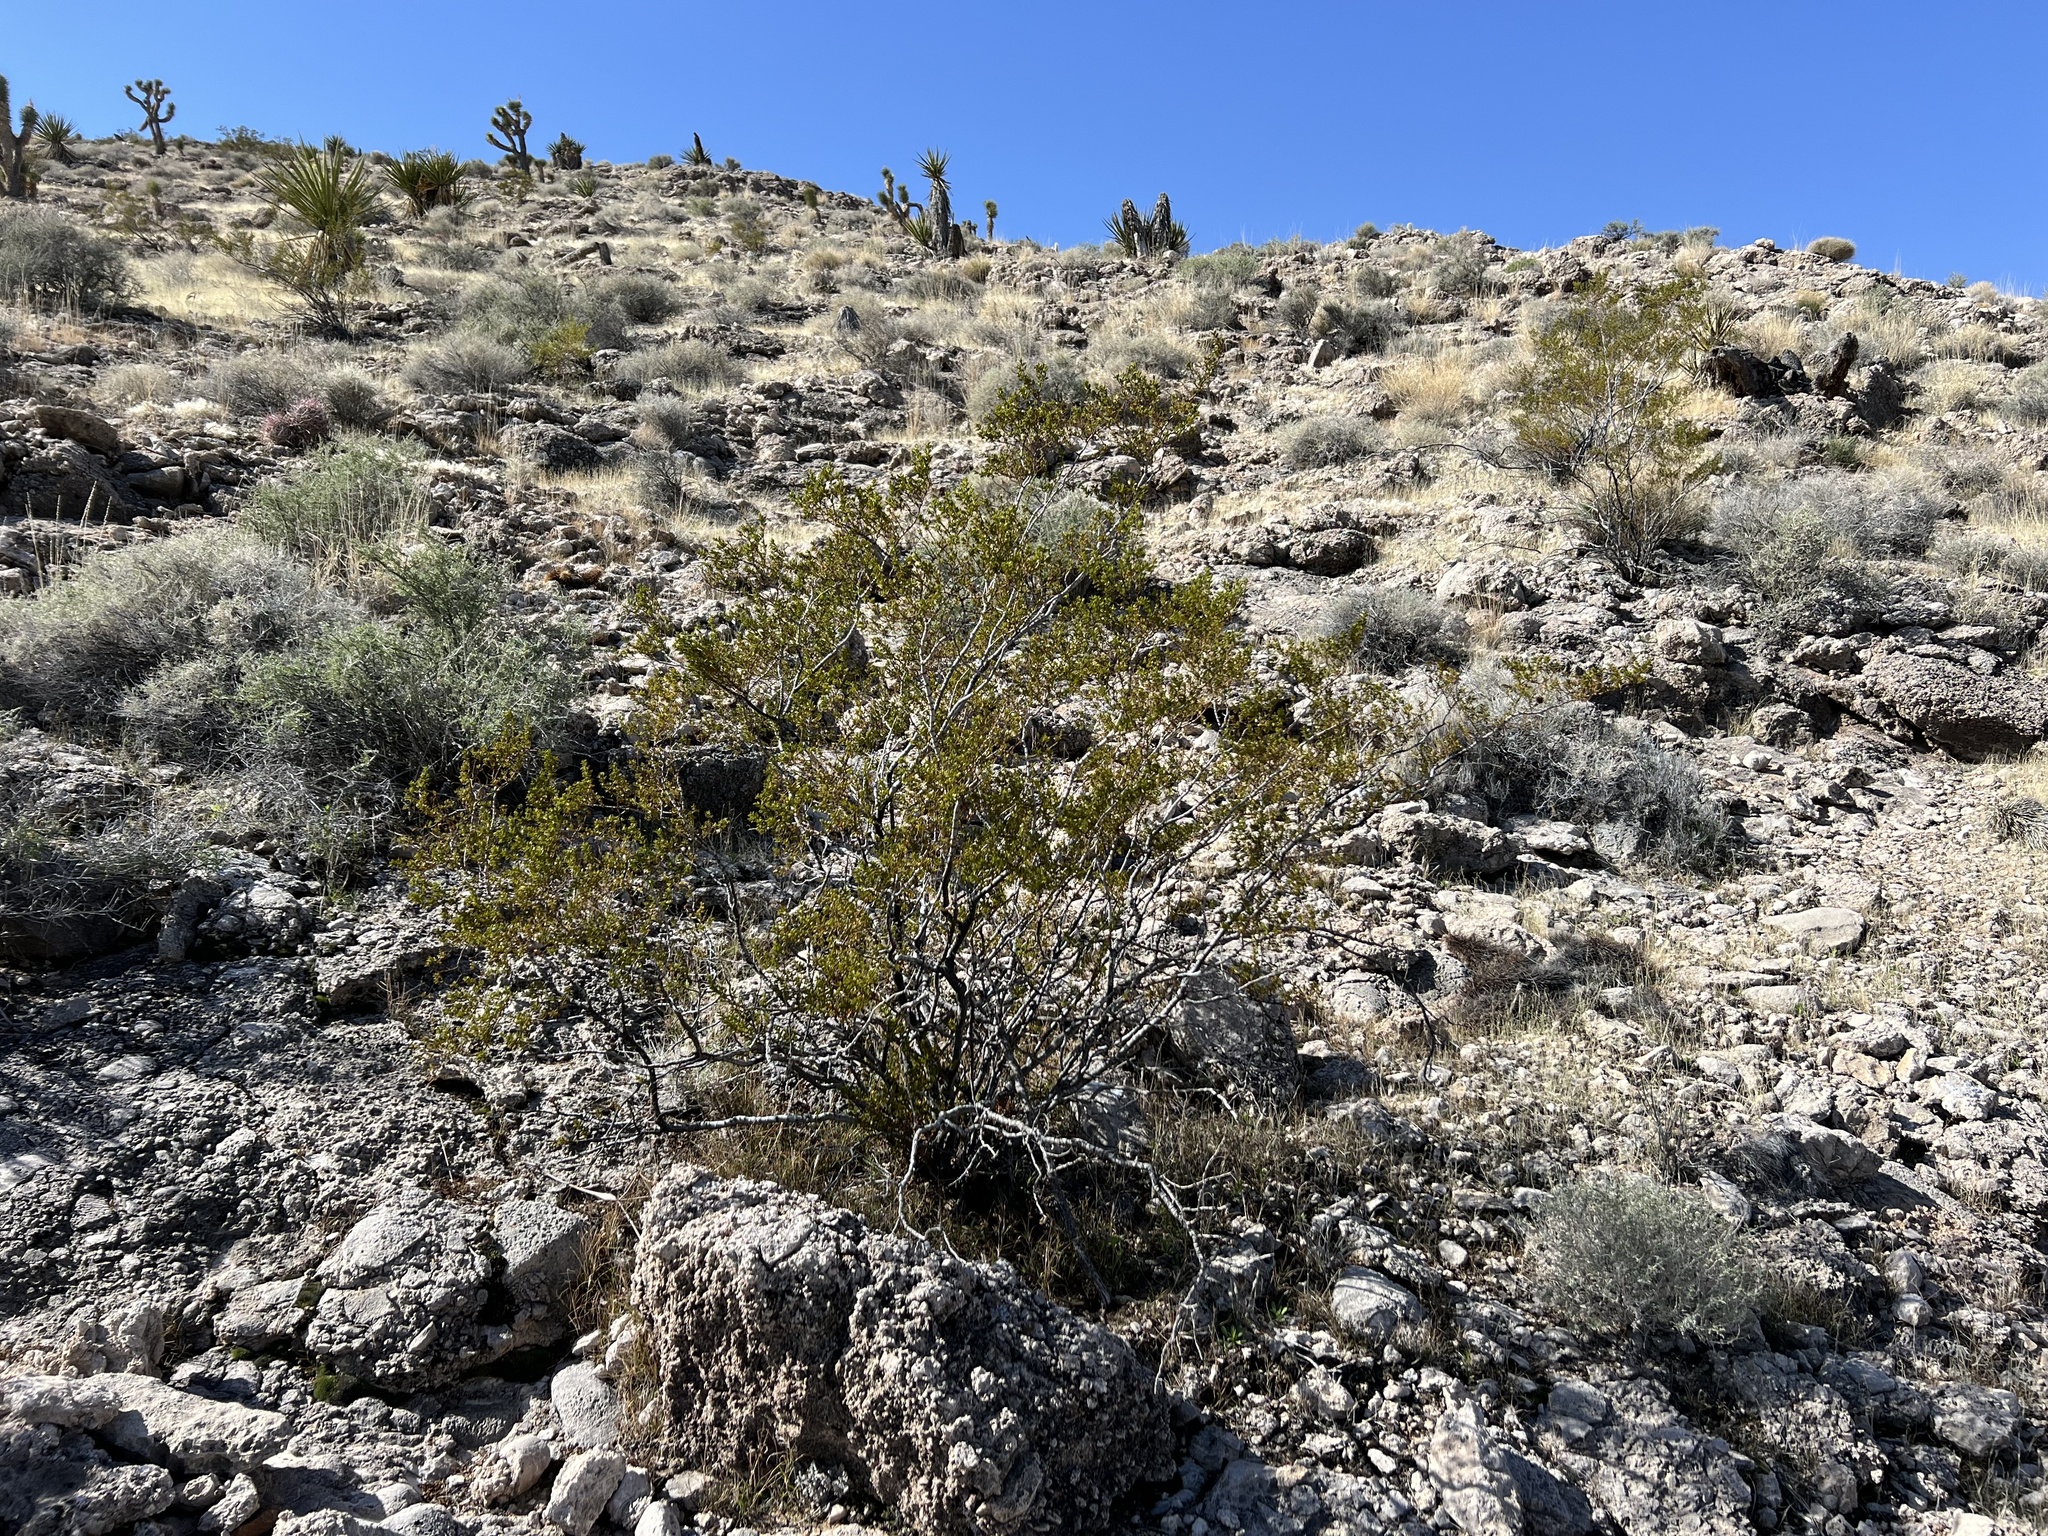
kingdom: Plantae
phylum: Tracheophyta
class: Magnoliopsida
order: Zygophyllales
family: Zygophyllaceae
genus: Larrea
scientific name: Larrea tridentata
